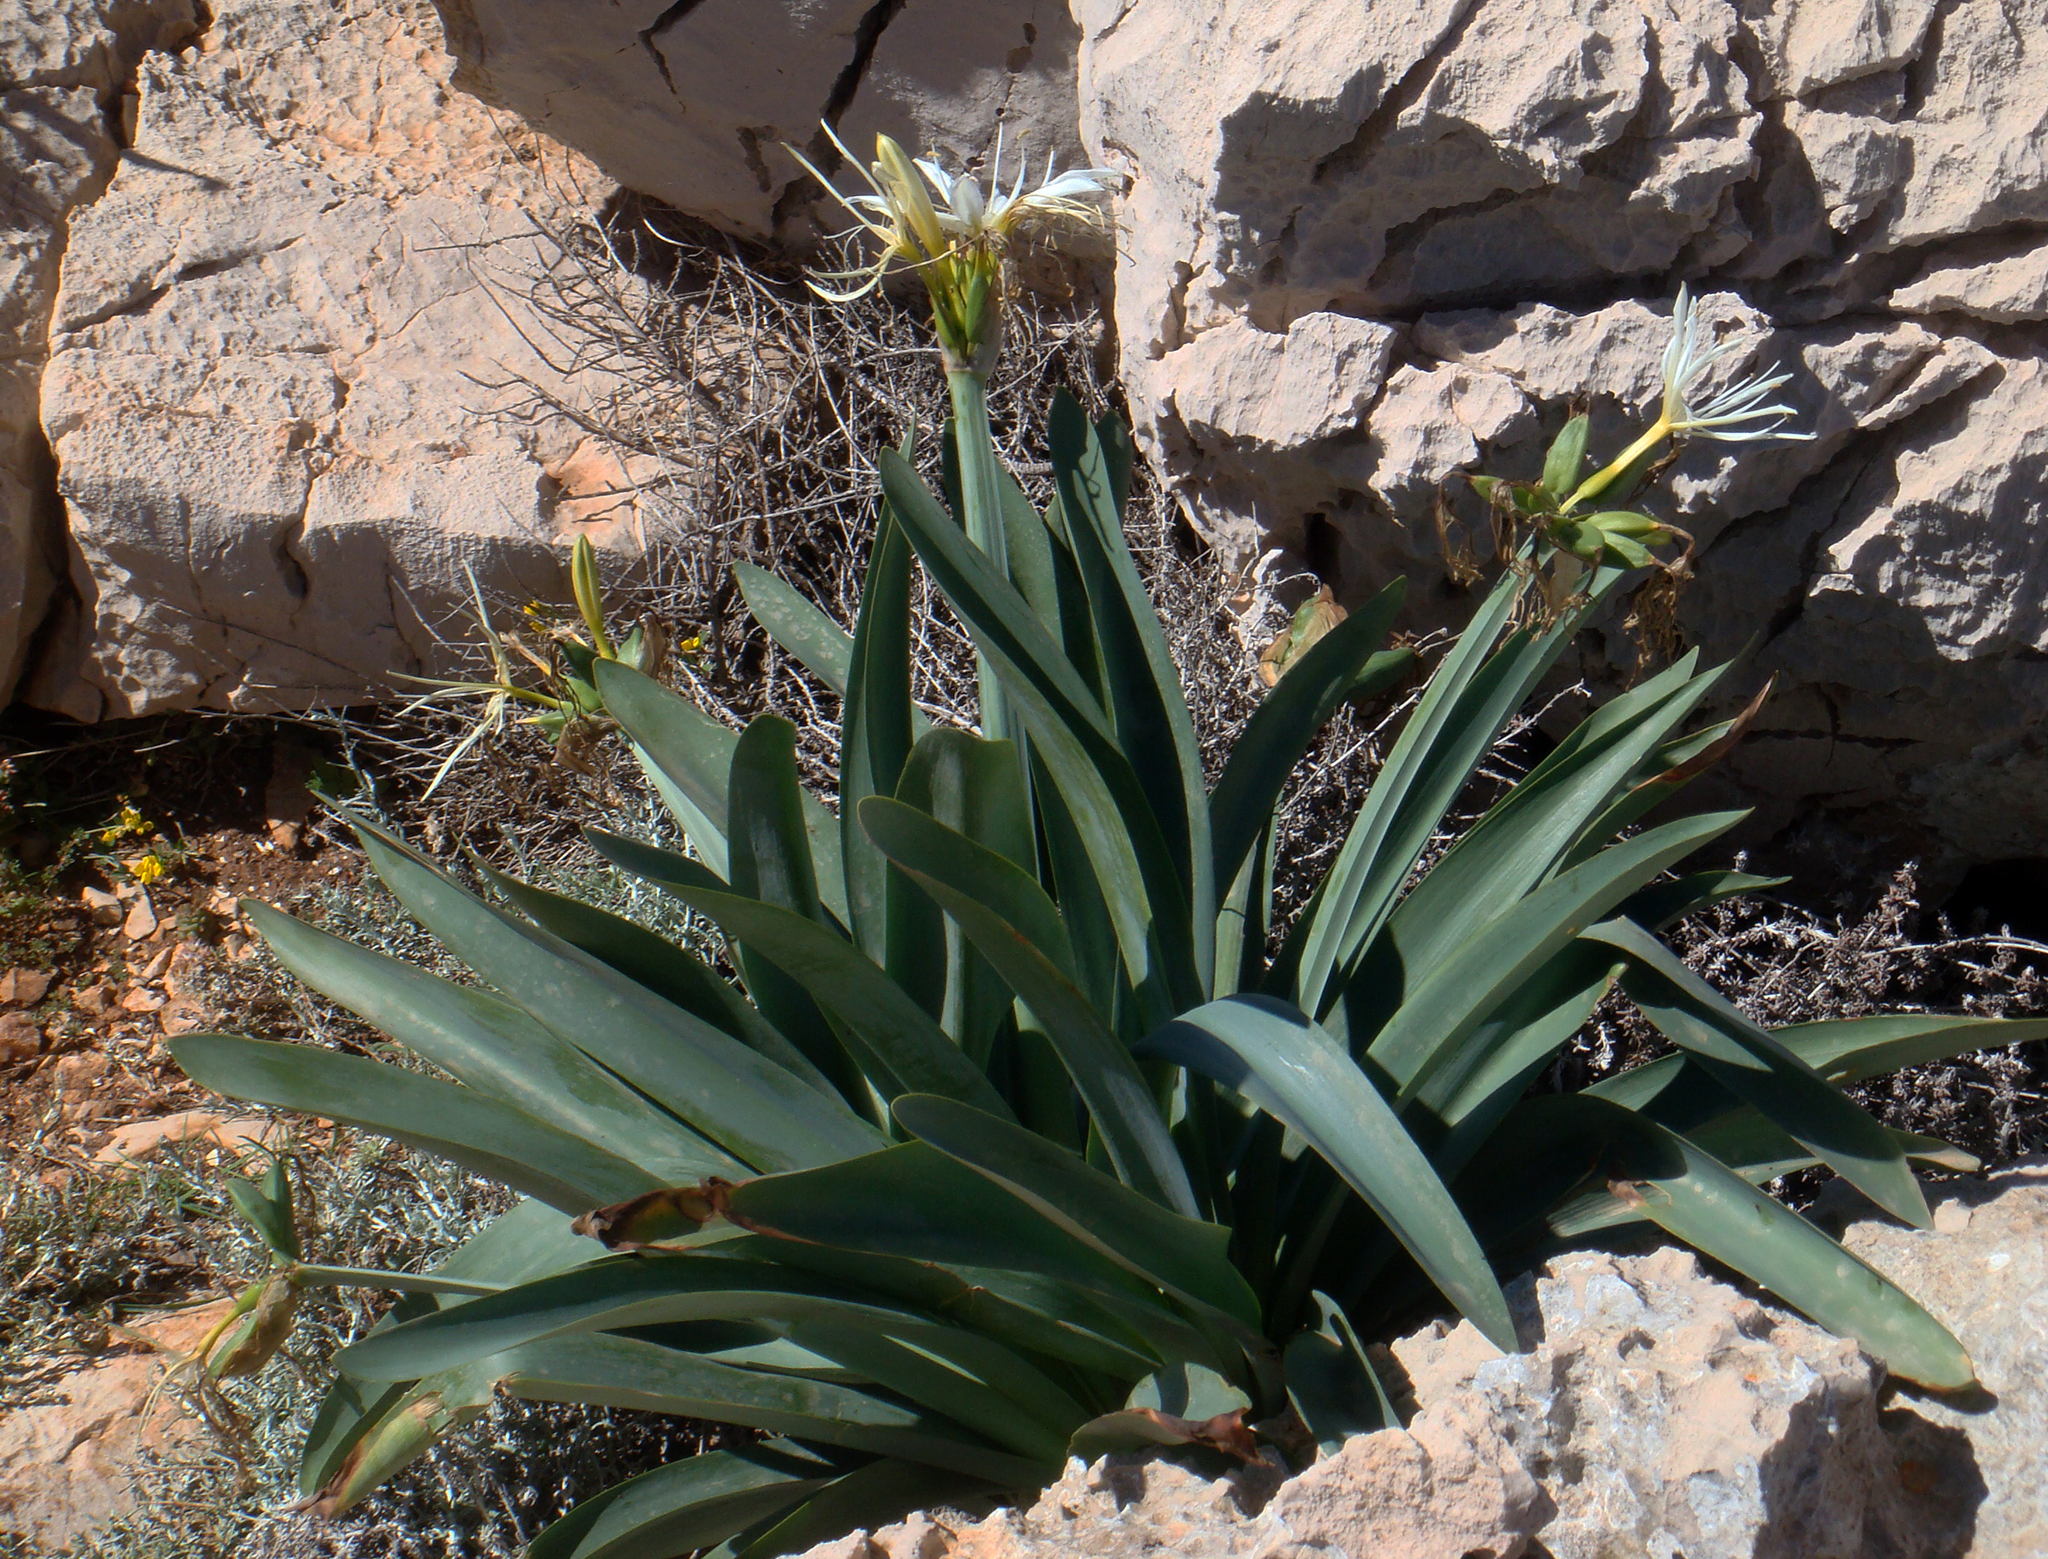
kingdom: Plantae
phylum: Tracheophyta
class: Liliopsida
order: Asparagales
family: Amaryllidaceae
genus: Pancratium
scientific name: Pancratium illyricum
